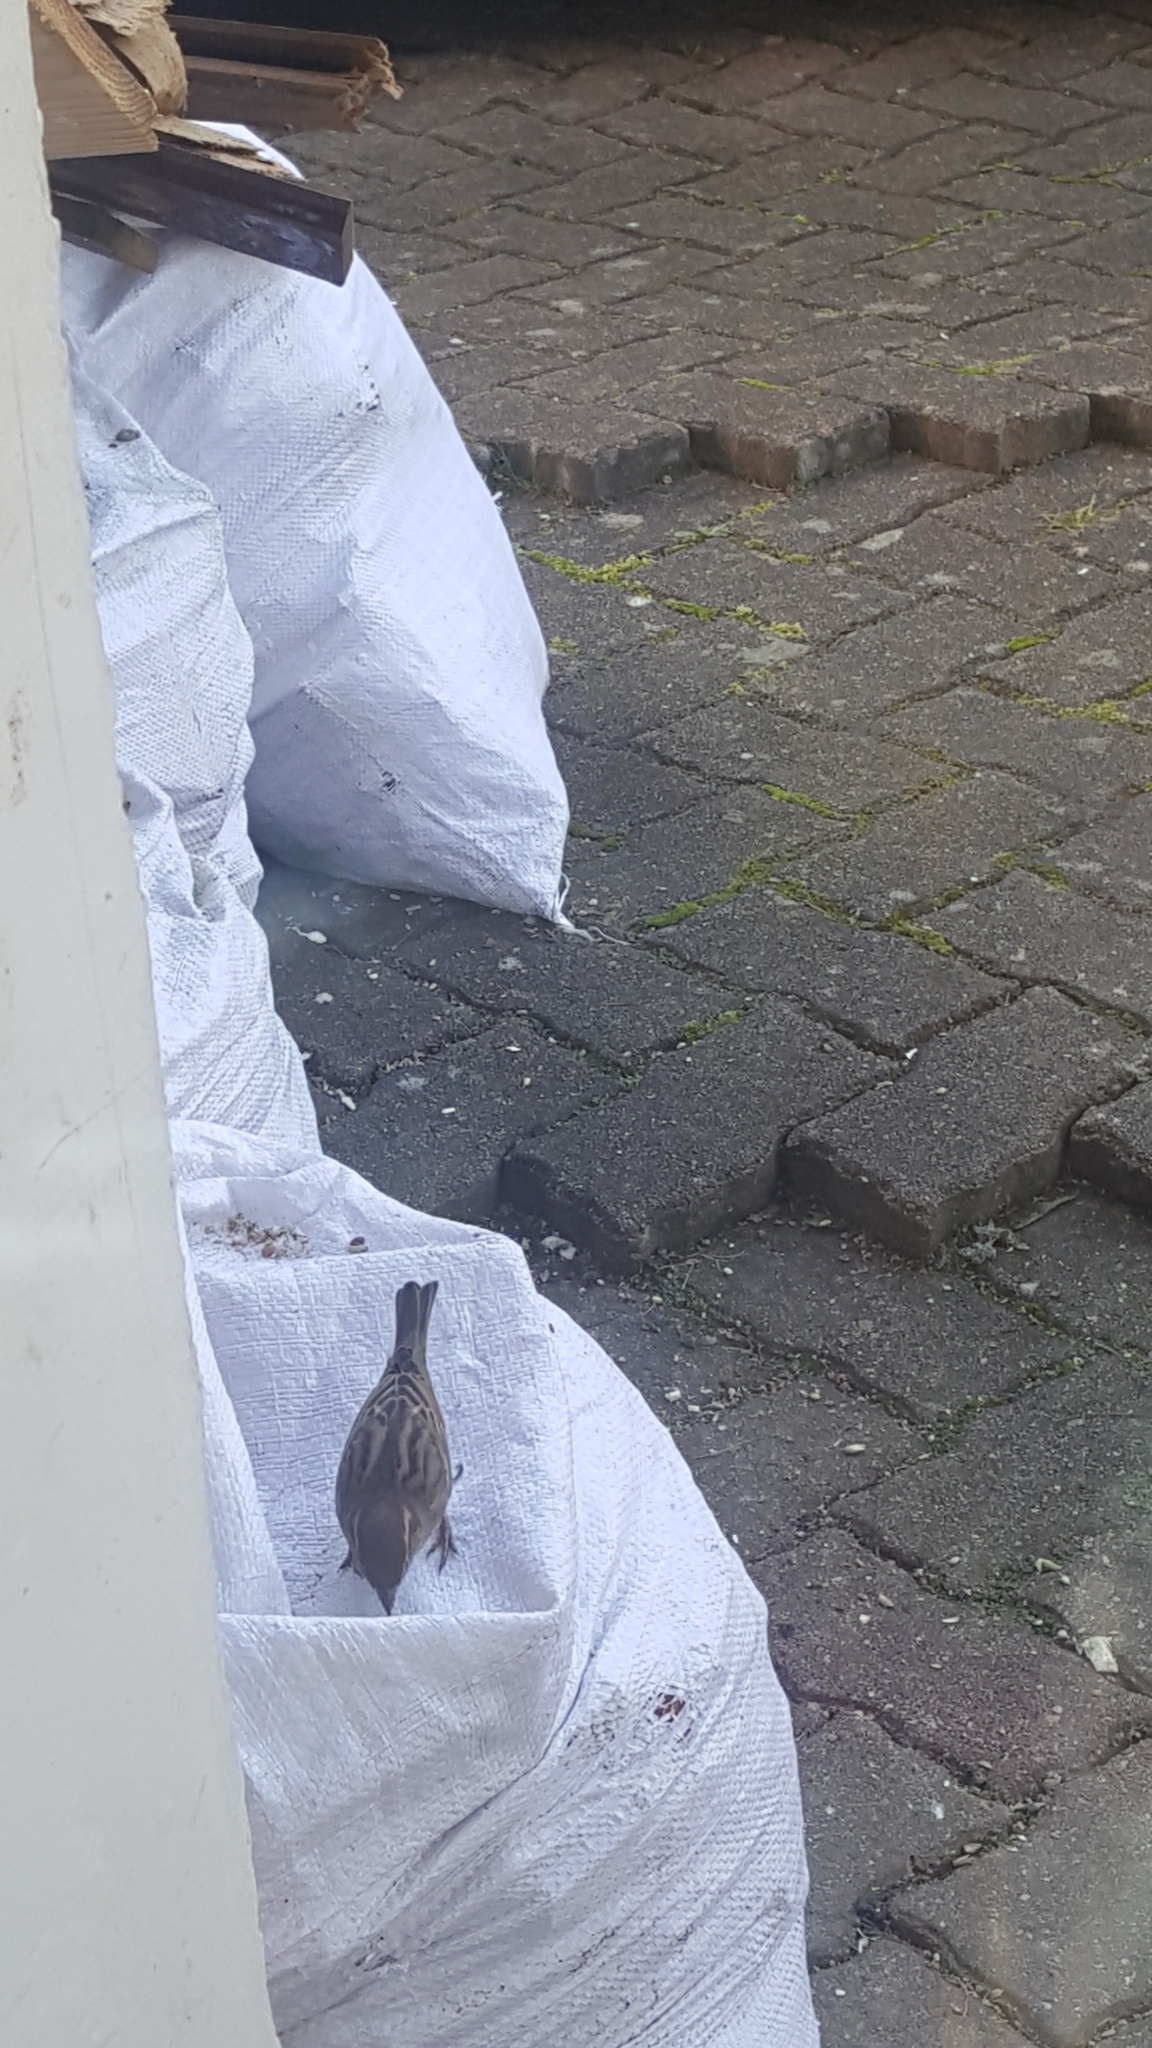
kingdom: Animalia
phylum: Chordata
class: Aves
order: Passeriformes
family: Passeridae
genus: Passer
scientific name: Passer domesticus
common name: House sparrow
